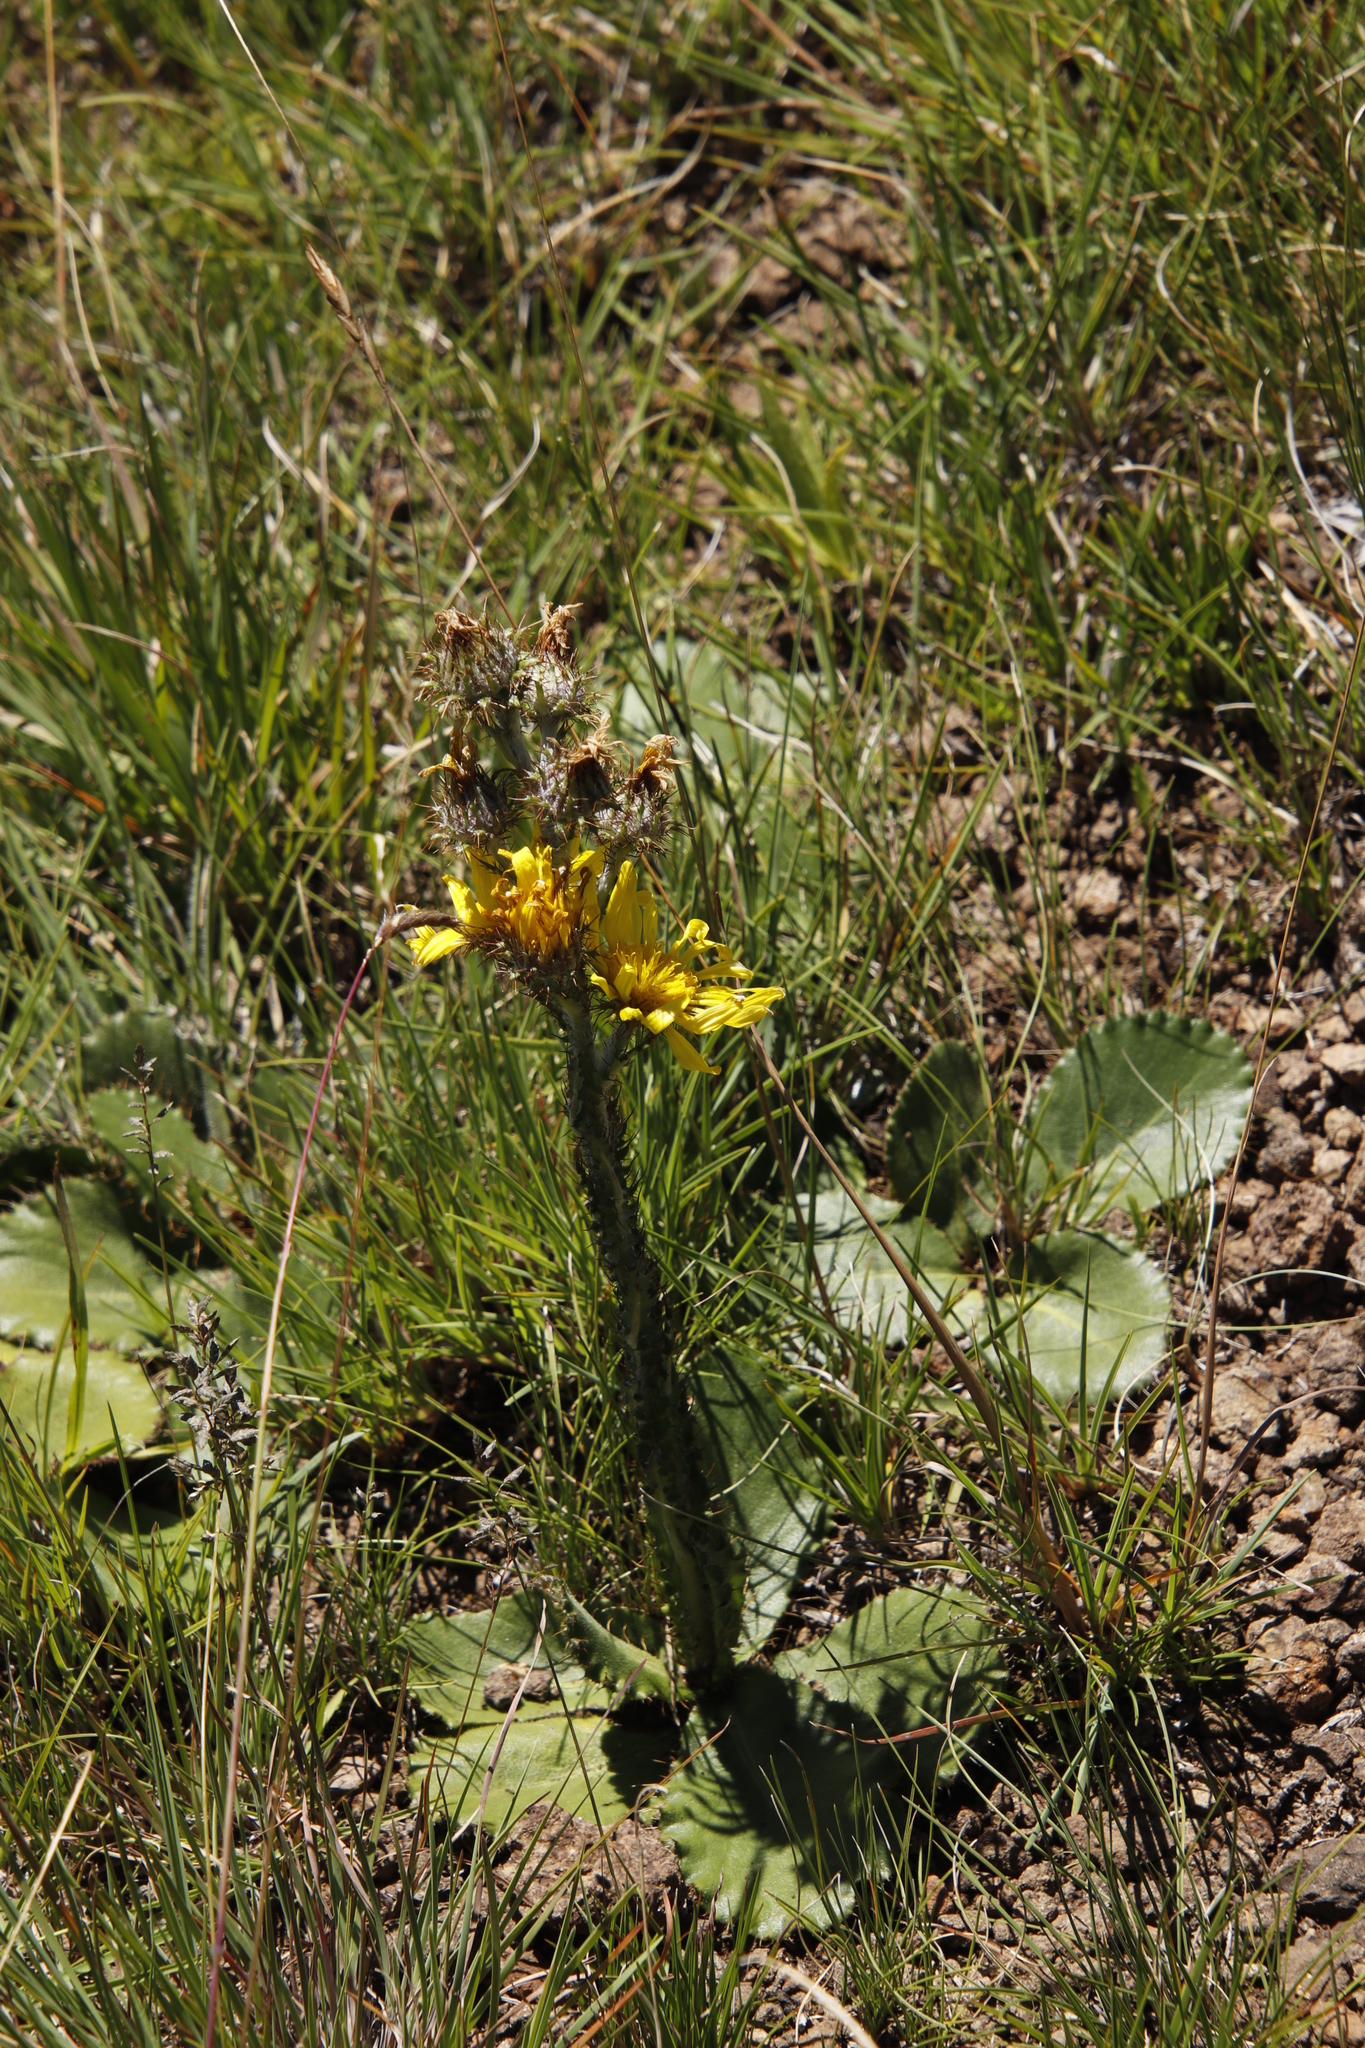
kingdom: Plantae
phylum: Tracheophyta
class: Magnoliopsida
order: Asterales
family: Asteraceae
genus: Berkheya
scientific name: Berkheya rhapontica
